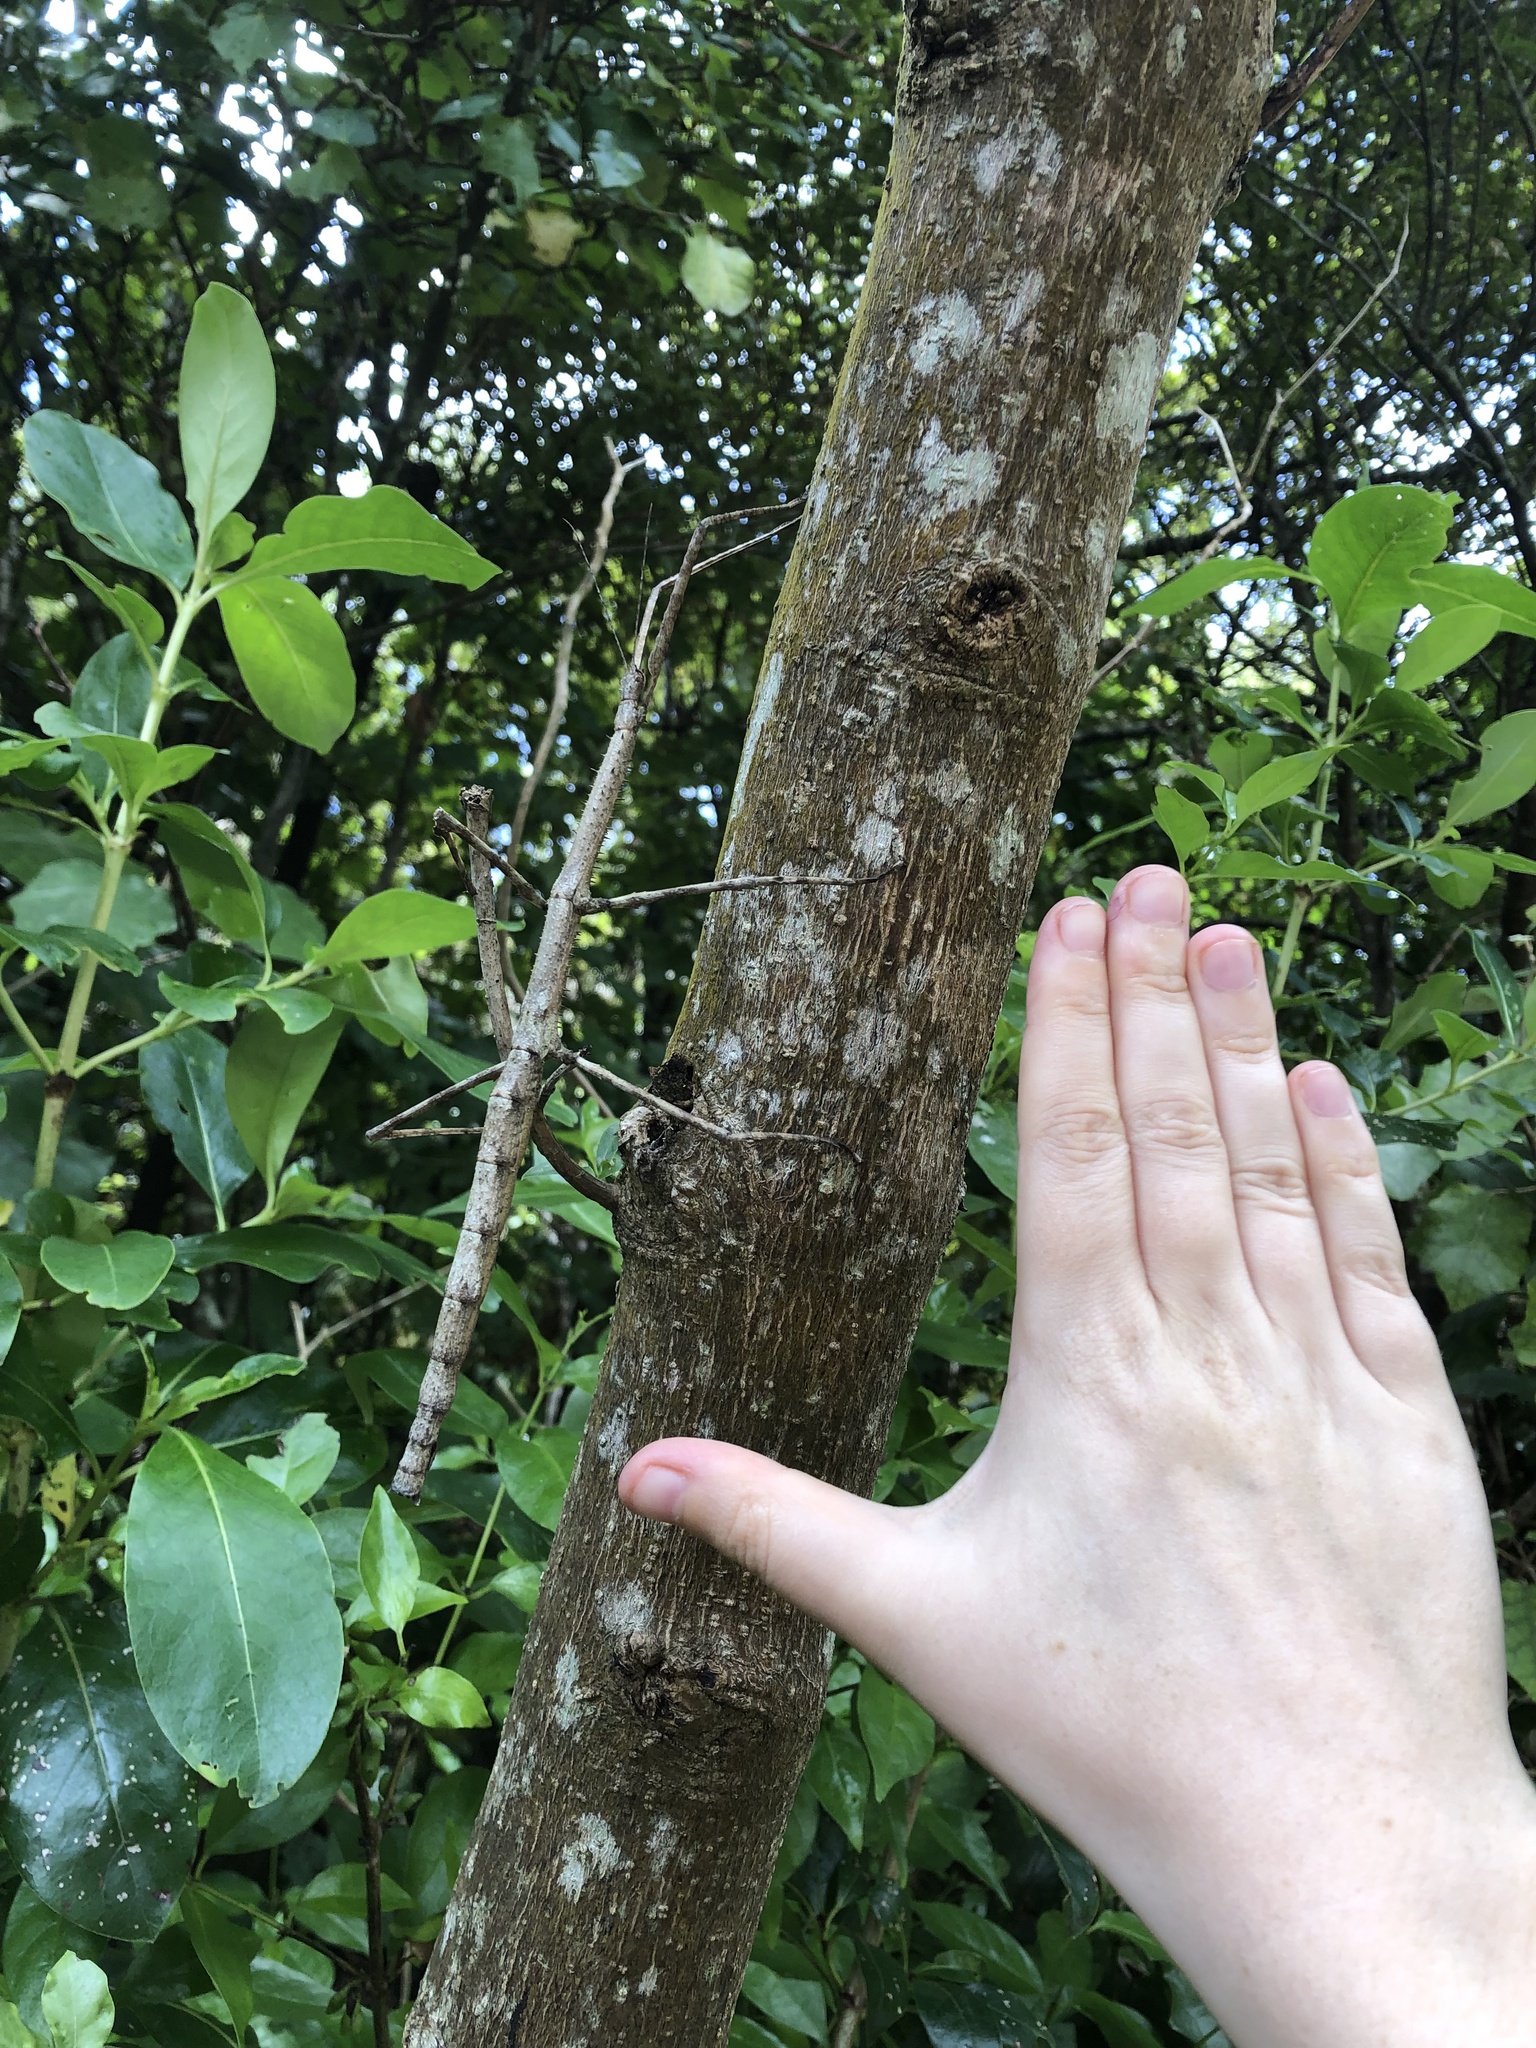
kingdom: Animalia
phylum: Arthropoda
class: Insecta
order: Phasmida
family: Phasmatidae
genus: Argosarchus
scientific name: Argosarchus horridus
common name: Bristly stick insect
